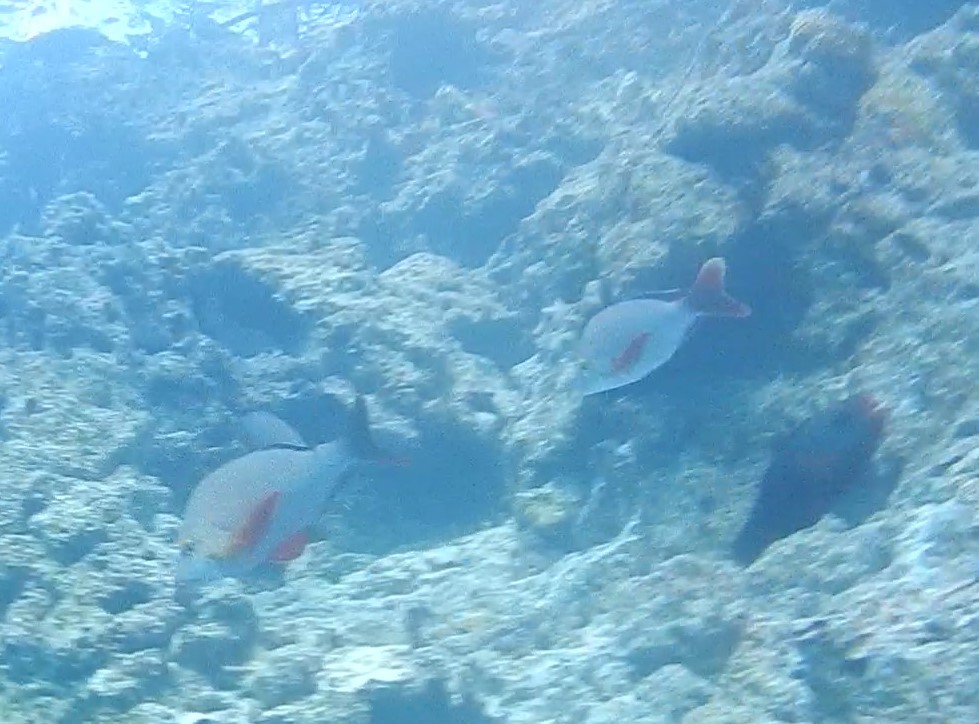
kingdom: Animalia
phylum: Chordata
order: Perciformes
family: Lutjanidae
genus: Lutjanus
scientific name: Lutjanus gibbus
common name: Humpback snapper
